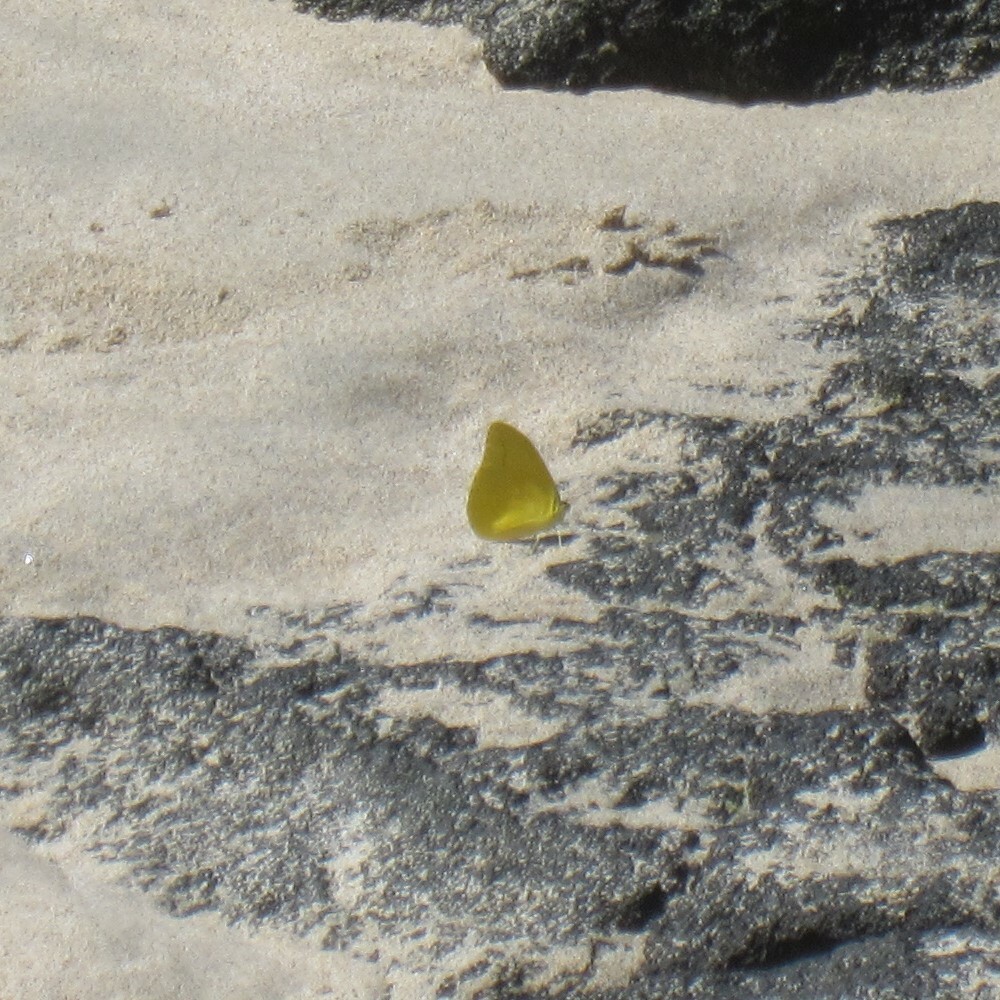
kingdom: Animalia
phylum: Arthropoda
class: Insecta
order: Lepidoptera
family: Pieridae
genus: Phoebis
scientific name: Phoebis agarithe
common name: Large orange sulphur
